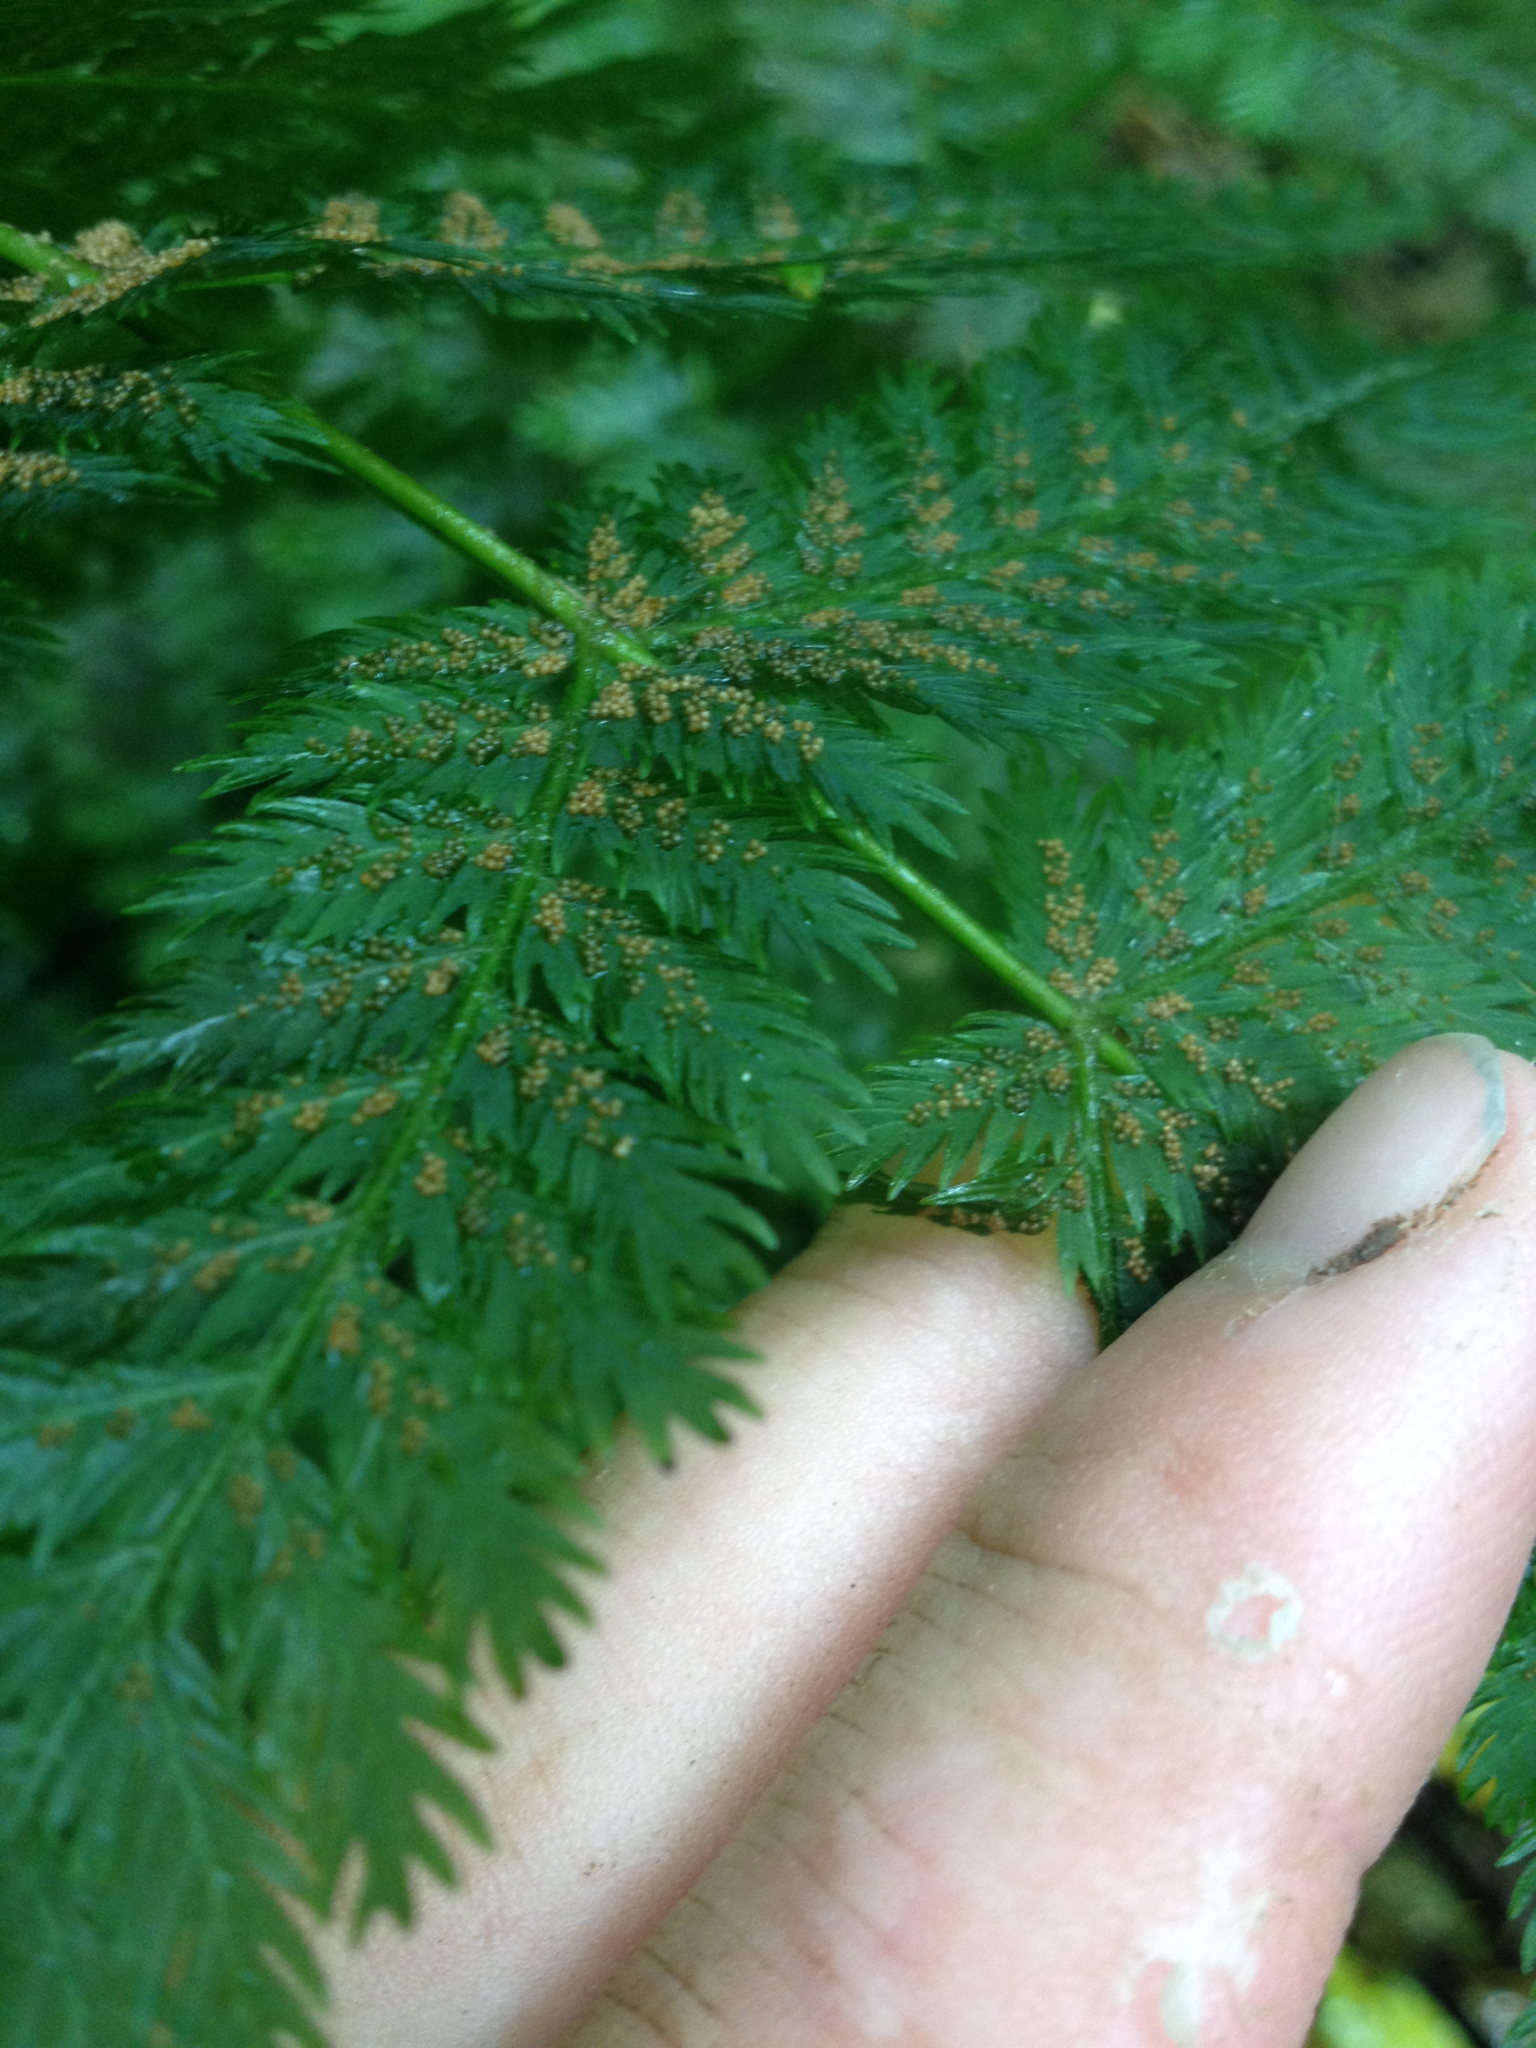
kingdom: Plantae
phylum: Tracheophyta
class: Polypodiopsida
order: Osmundales
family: Osmundaceae
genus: Leptopteris
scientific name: Leptopteris hymenophylloides
